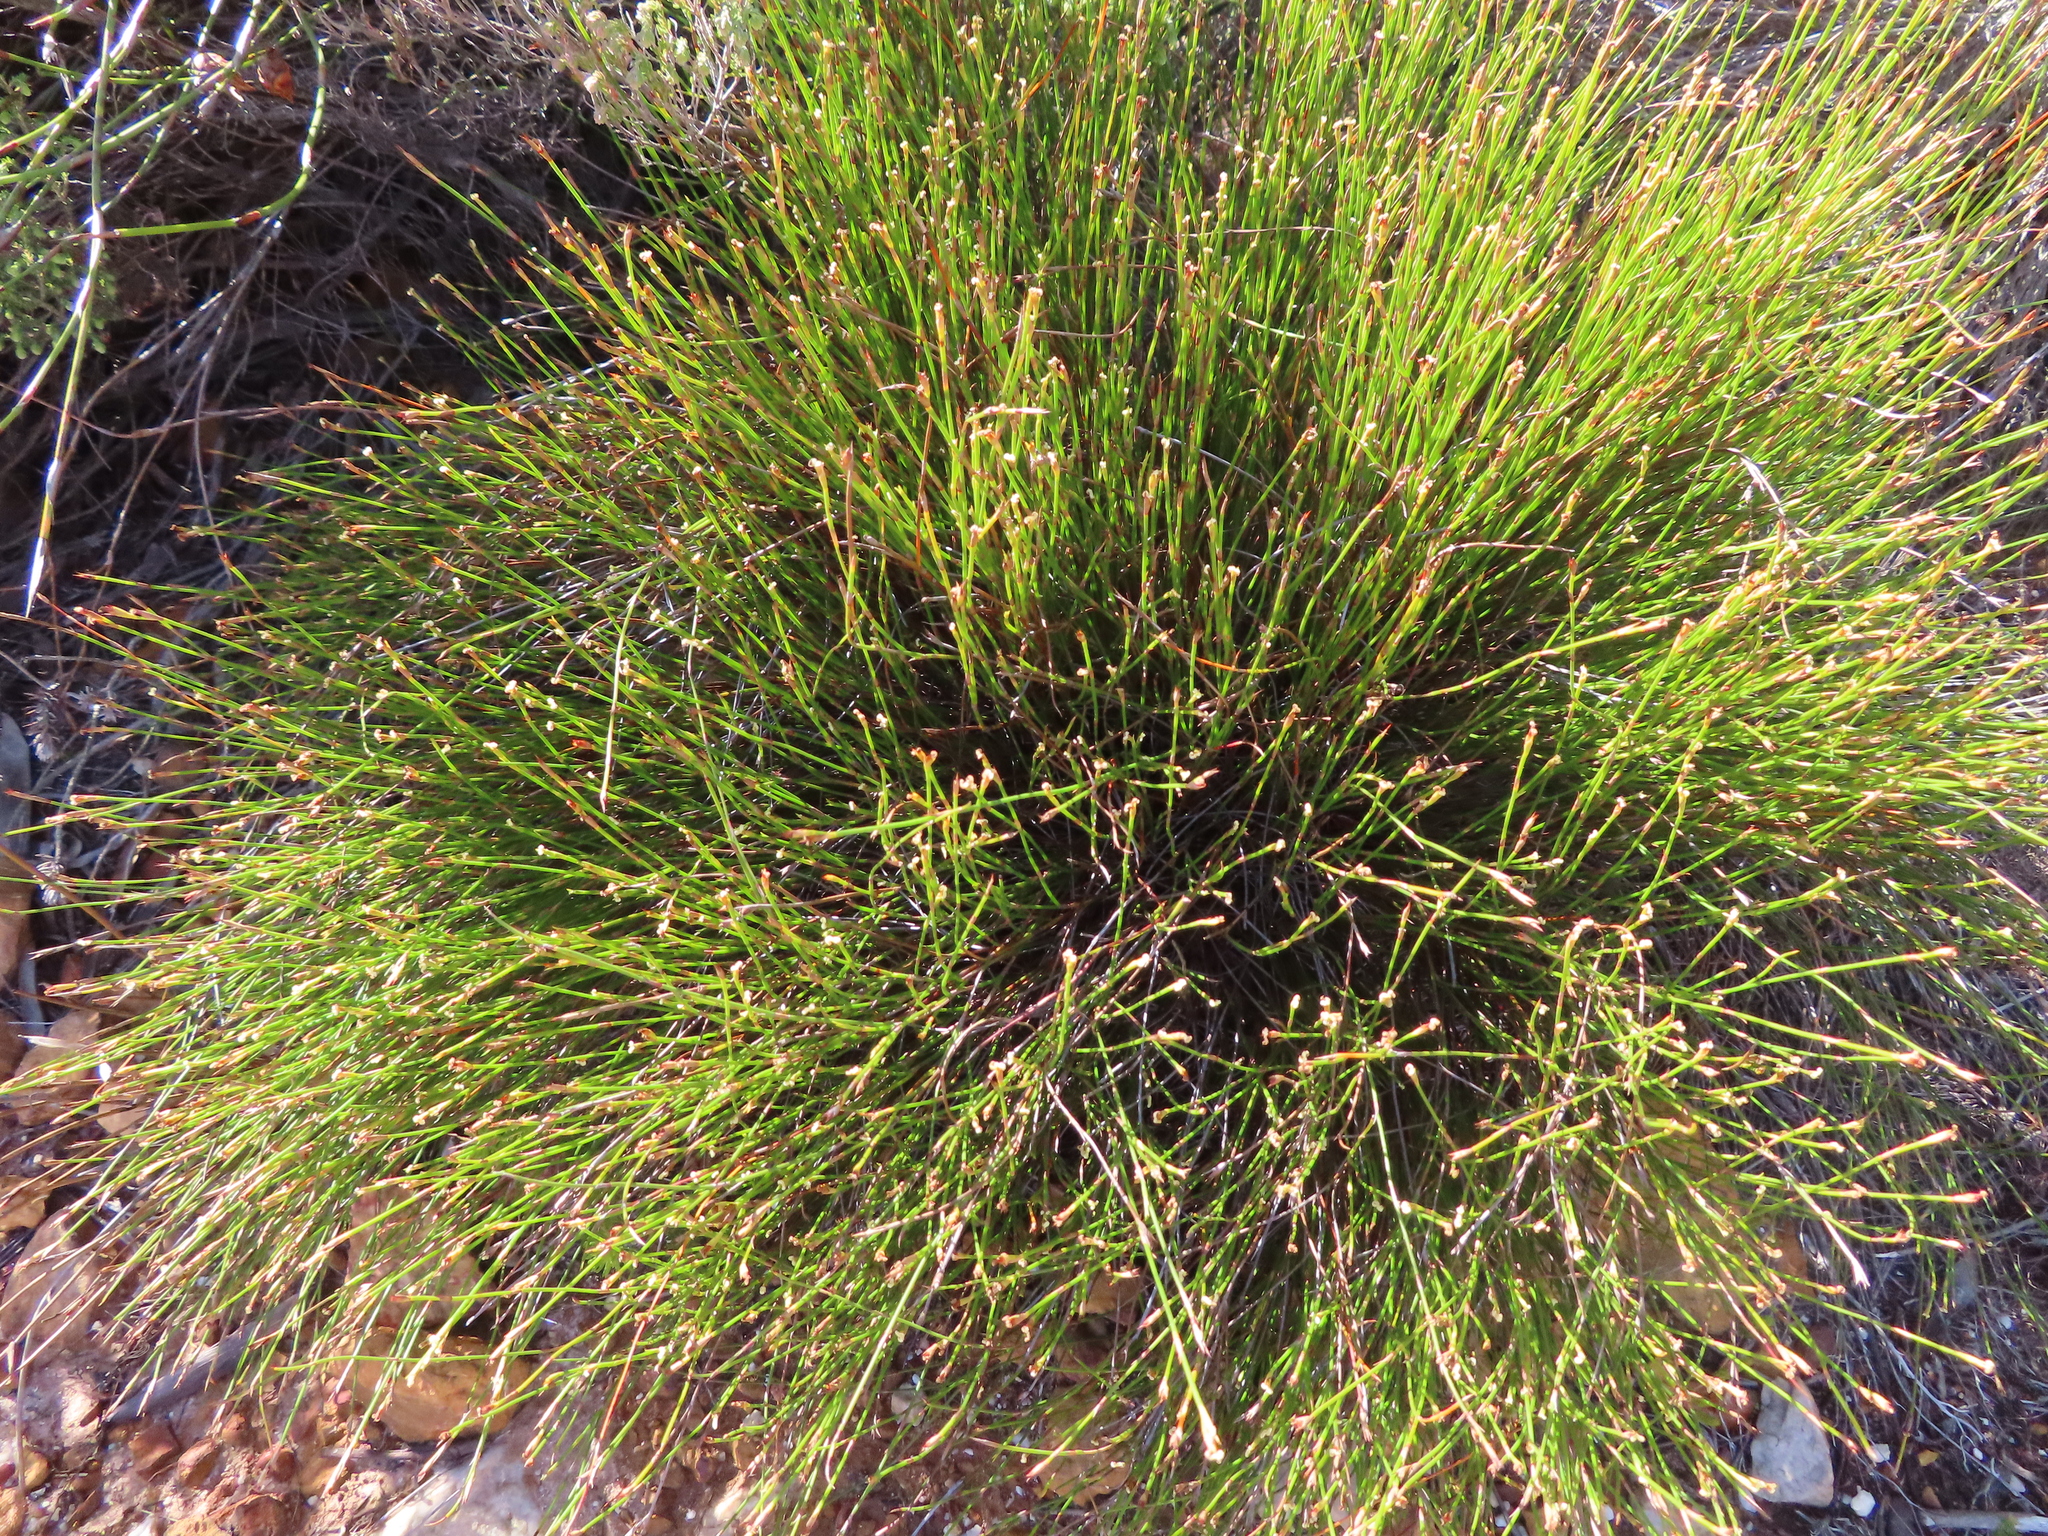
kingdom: Plantae
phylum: Tracheophyta
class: Liliopsida
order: Poales
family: Restionaceae
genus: Mastersiella
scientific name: Mastersiella digitata
